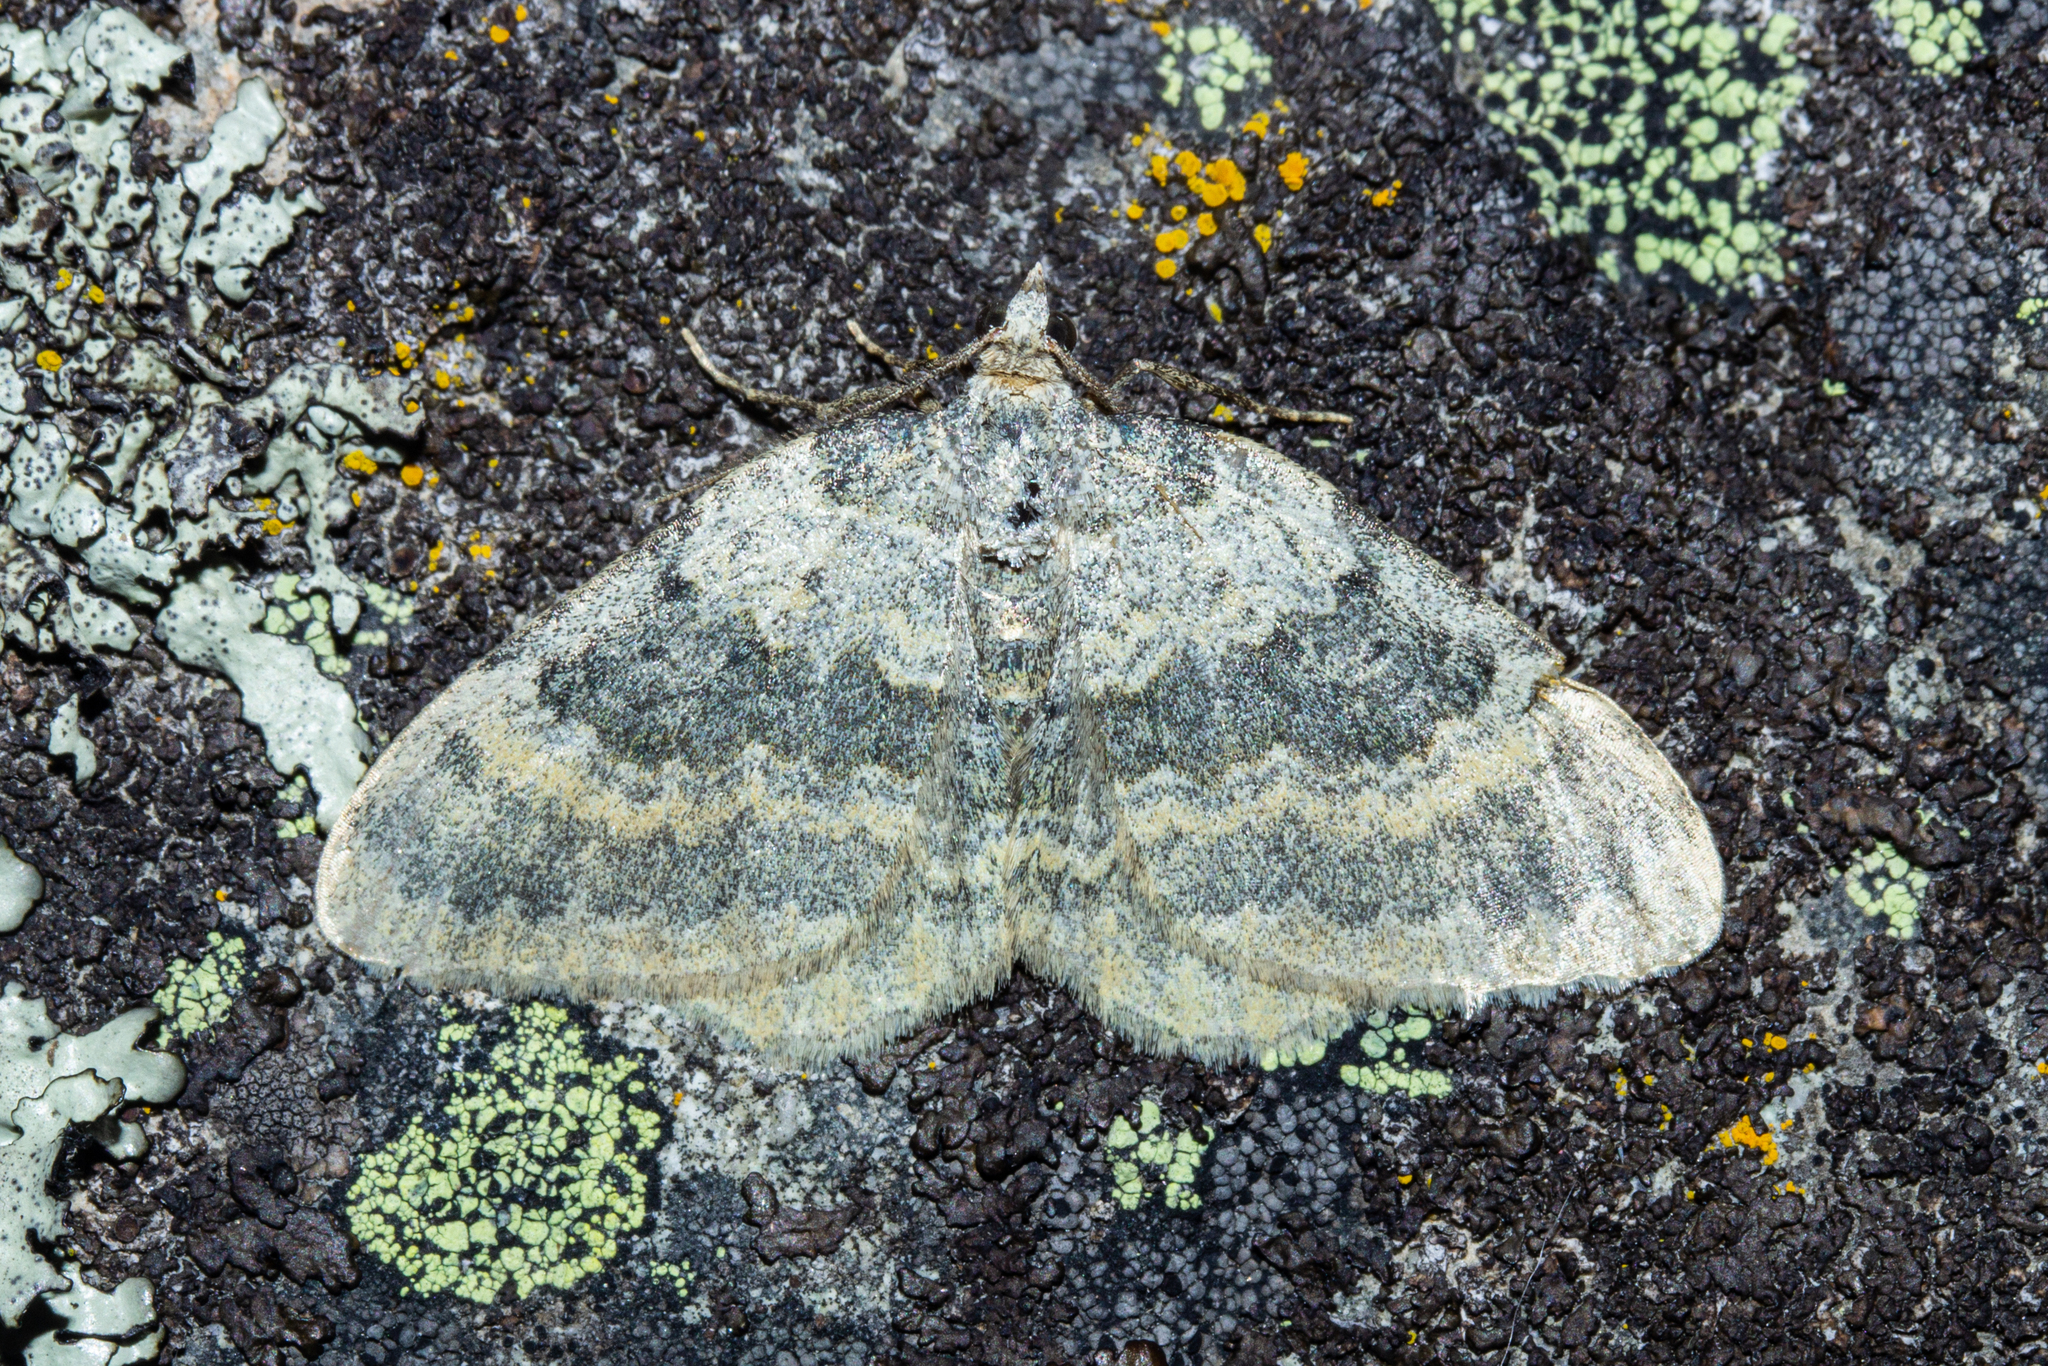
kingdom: Animalia
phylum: Arthropoda
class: Insecta
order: Lepidoptera
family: Geometridae
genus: Gingidiobora
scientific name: Gingidiobora nebulosa
